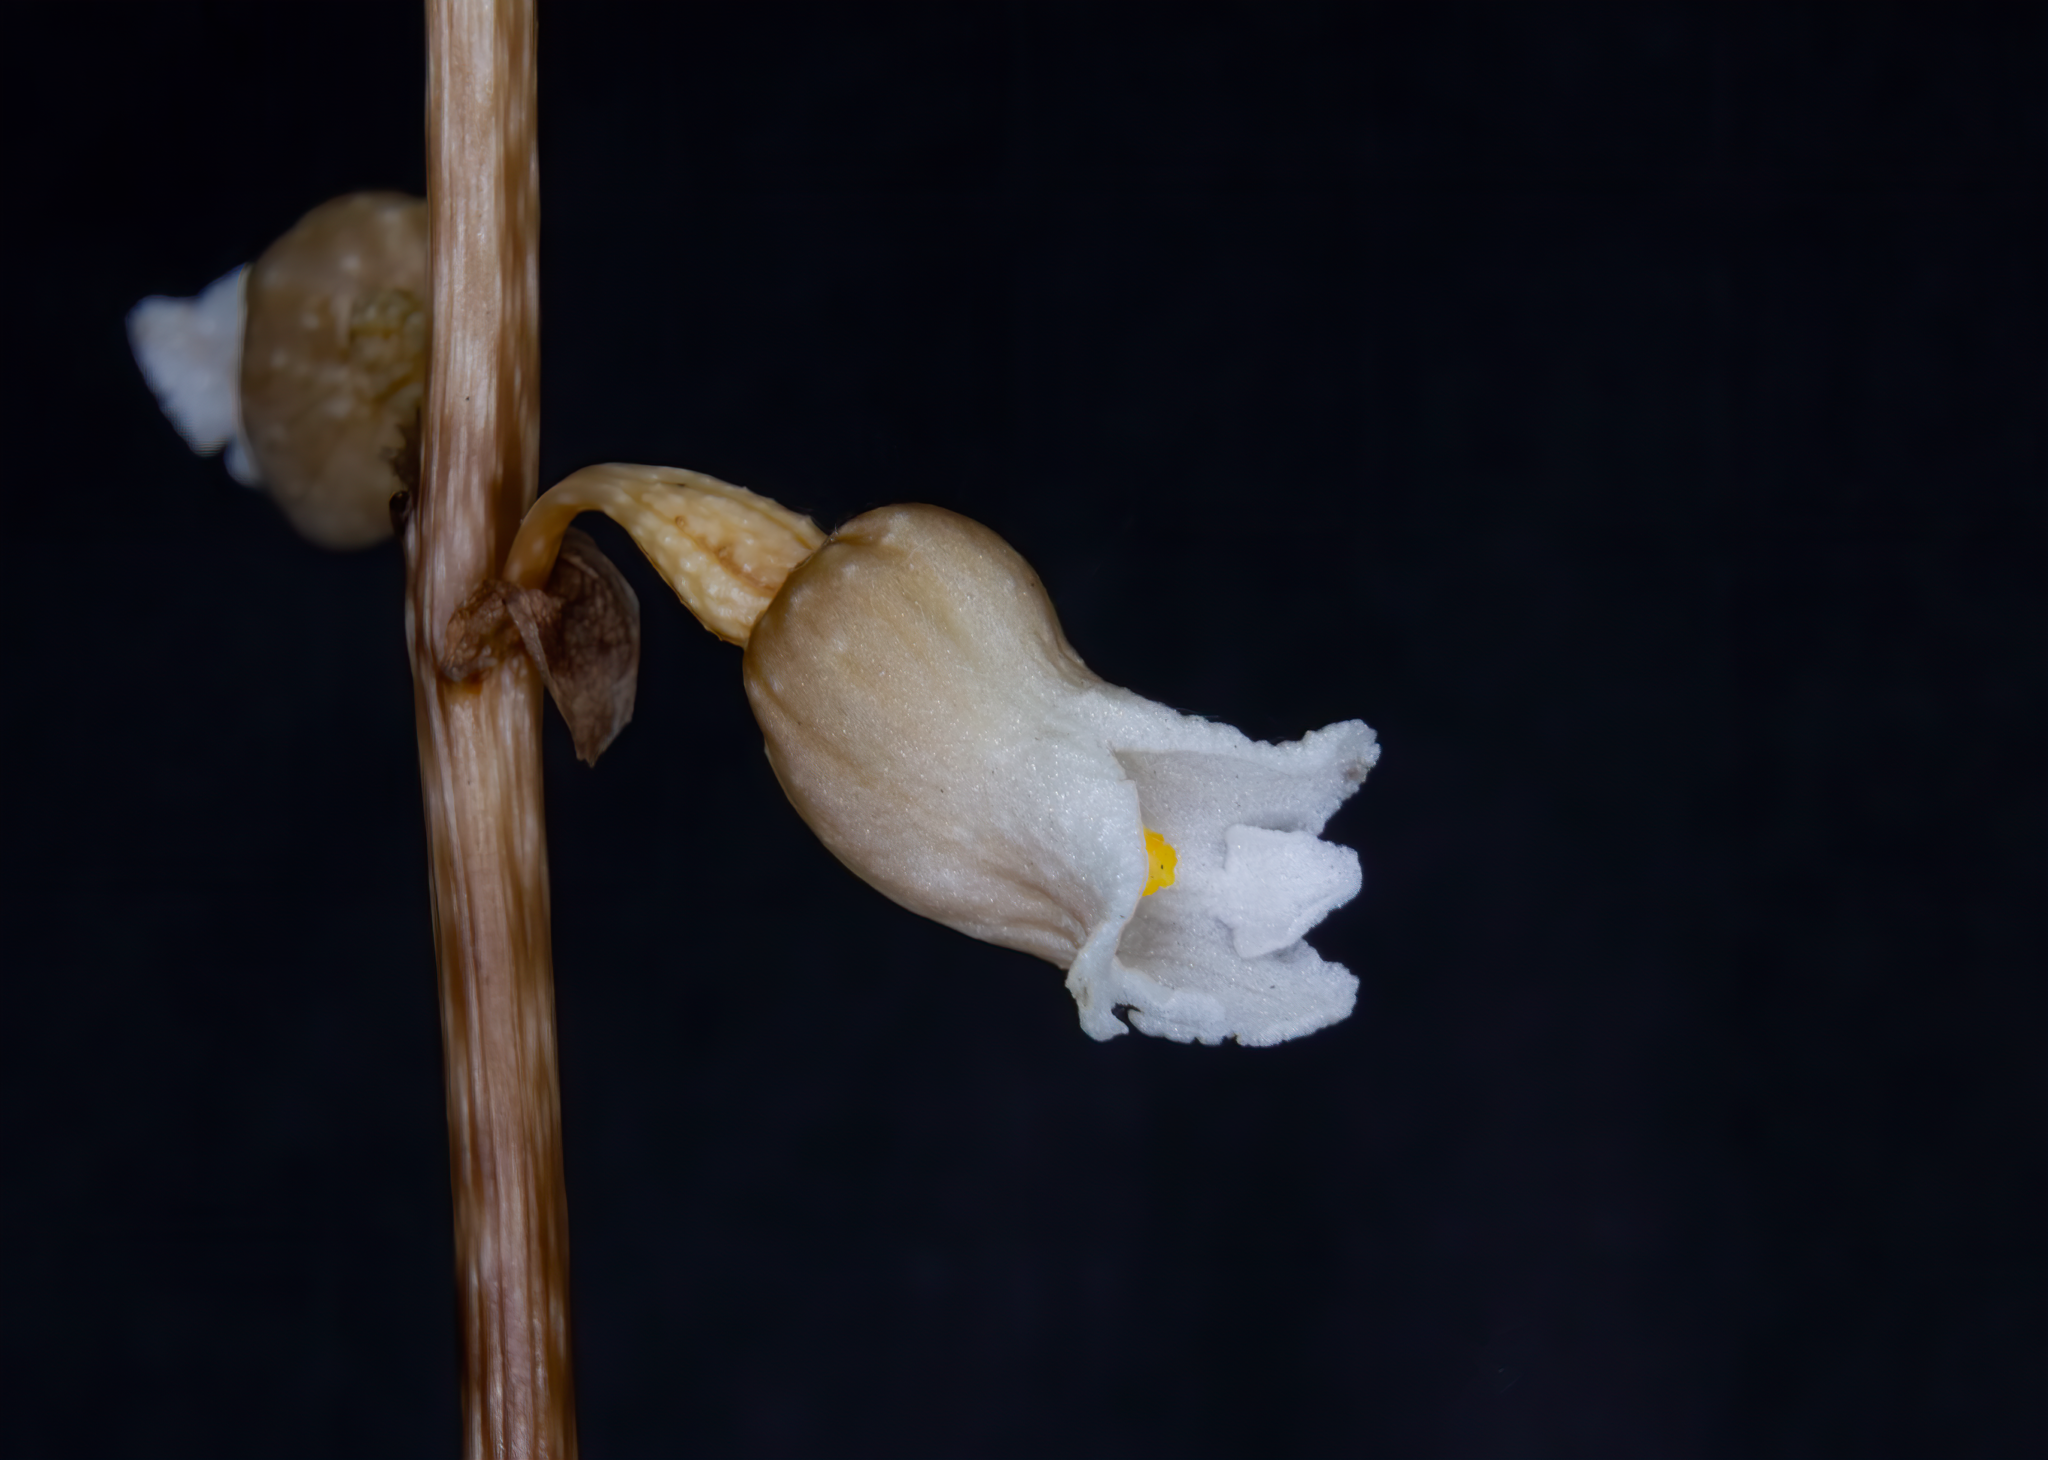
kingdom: Plantae
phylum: Tracheophyta
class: Liliopsida
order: Asparagales
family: Orchidaceae
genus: Gastrodia
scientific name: Gastrodia sesamoides
